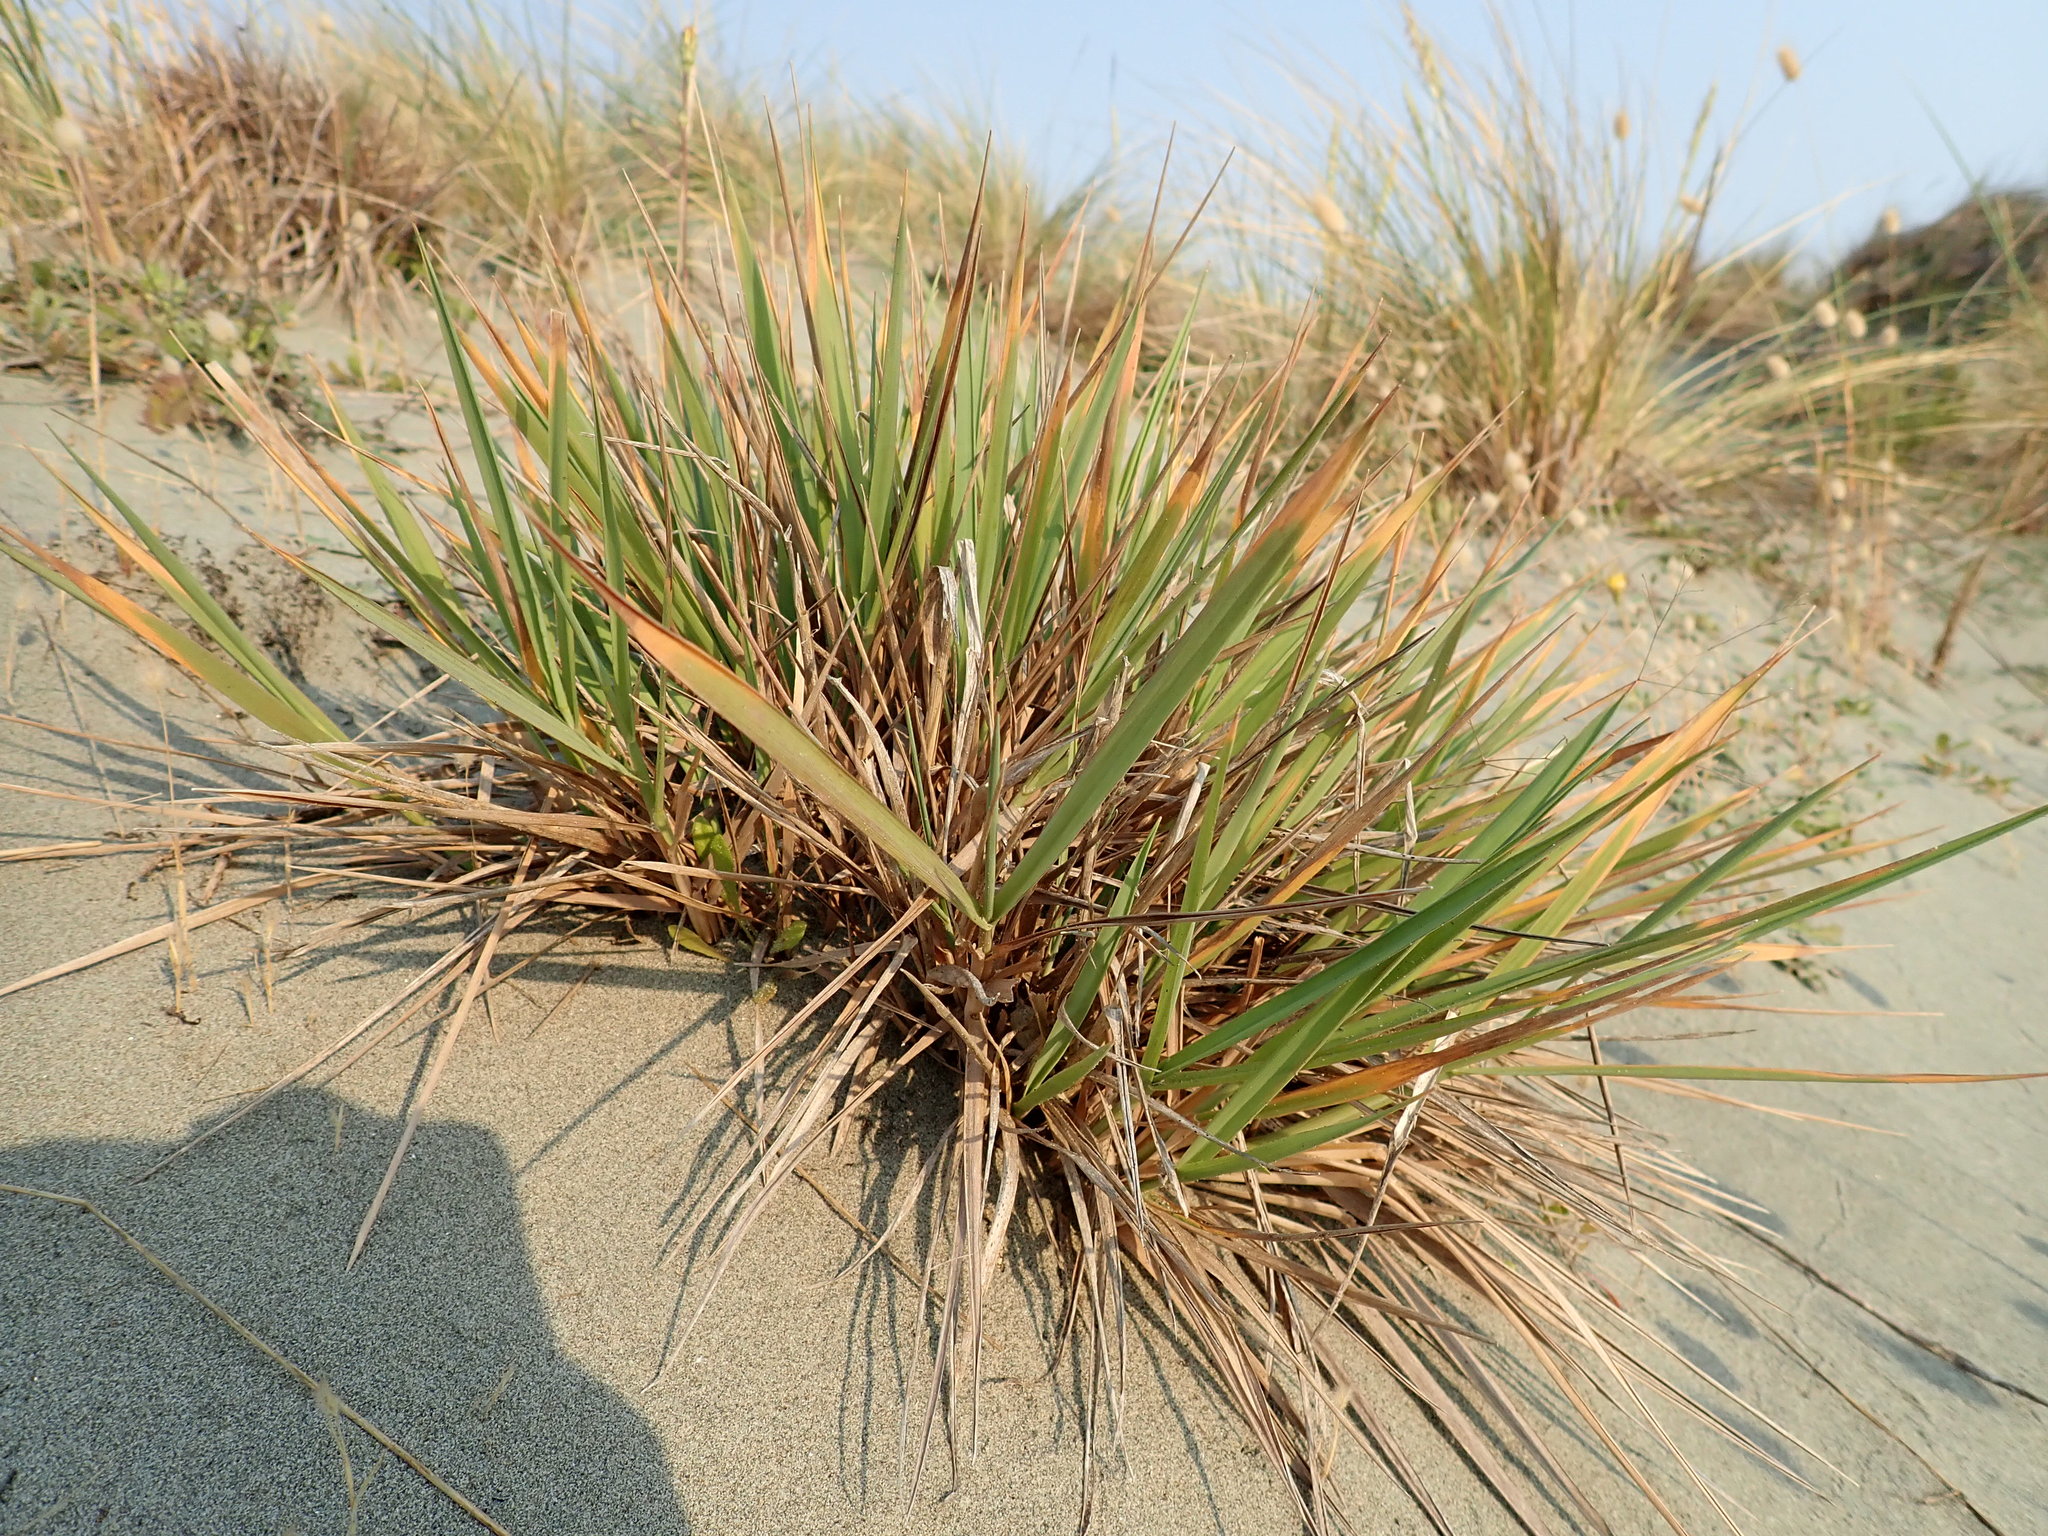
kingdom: Plantae
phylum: Tracheophyta
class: Liliopsida
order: Poales
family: Poaceae
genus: Lachnagrostis
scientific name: Lachnagrostis billardierei
